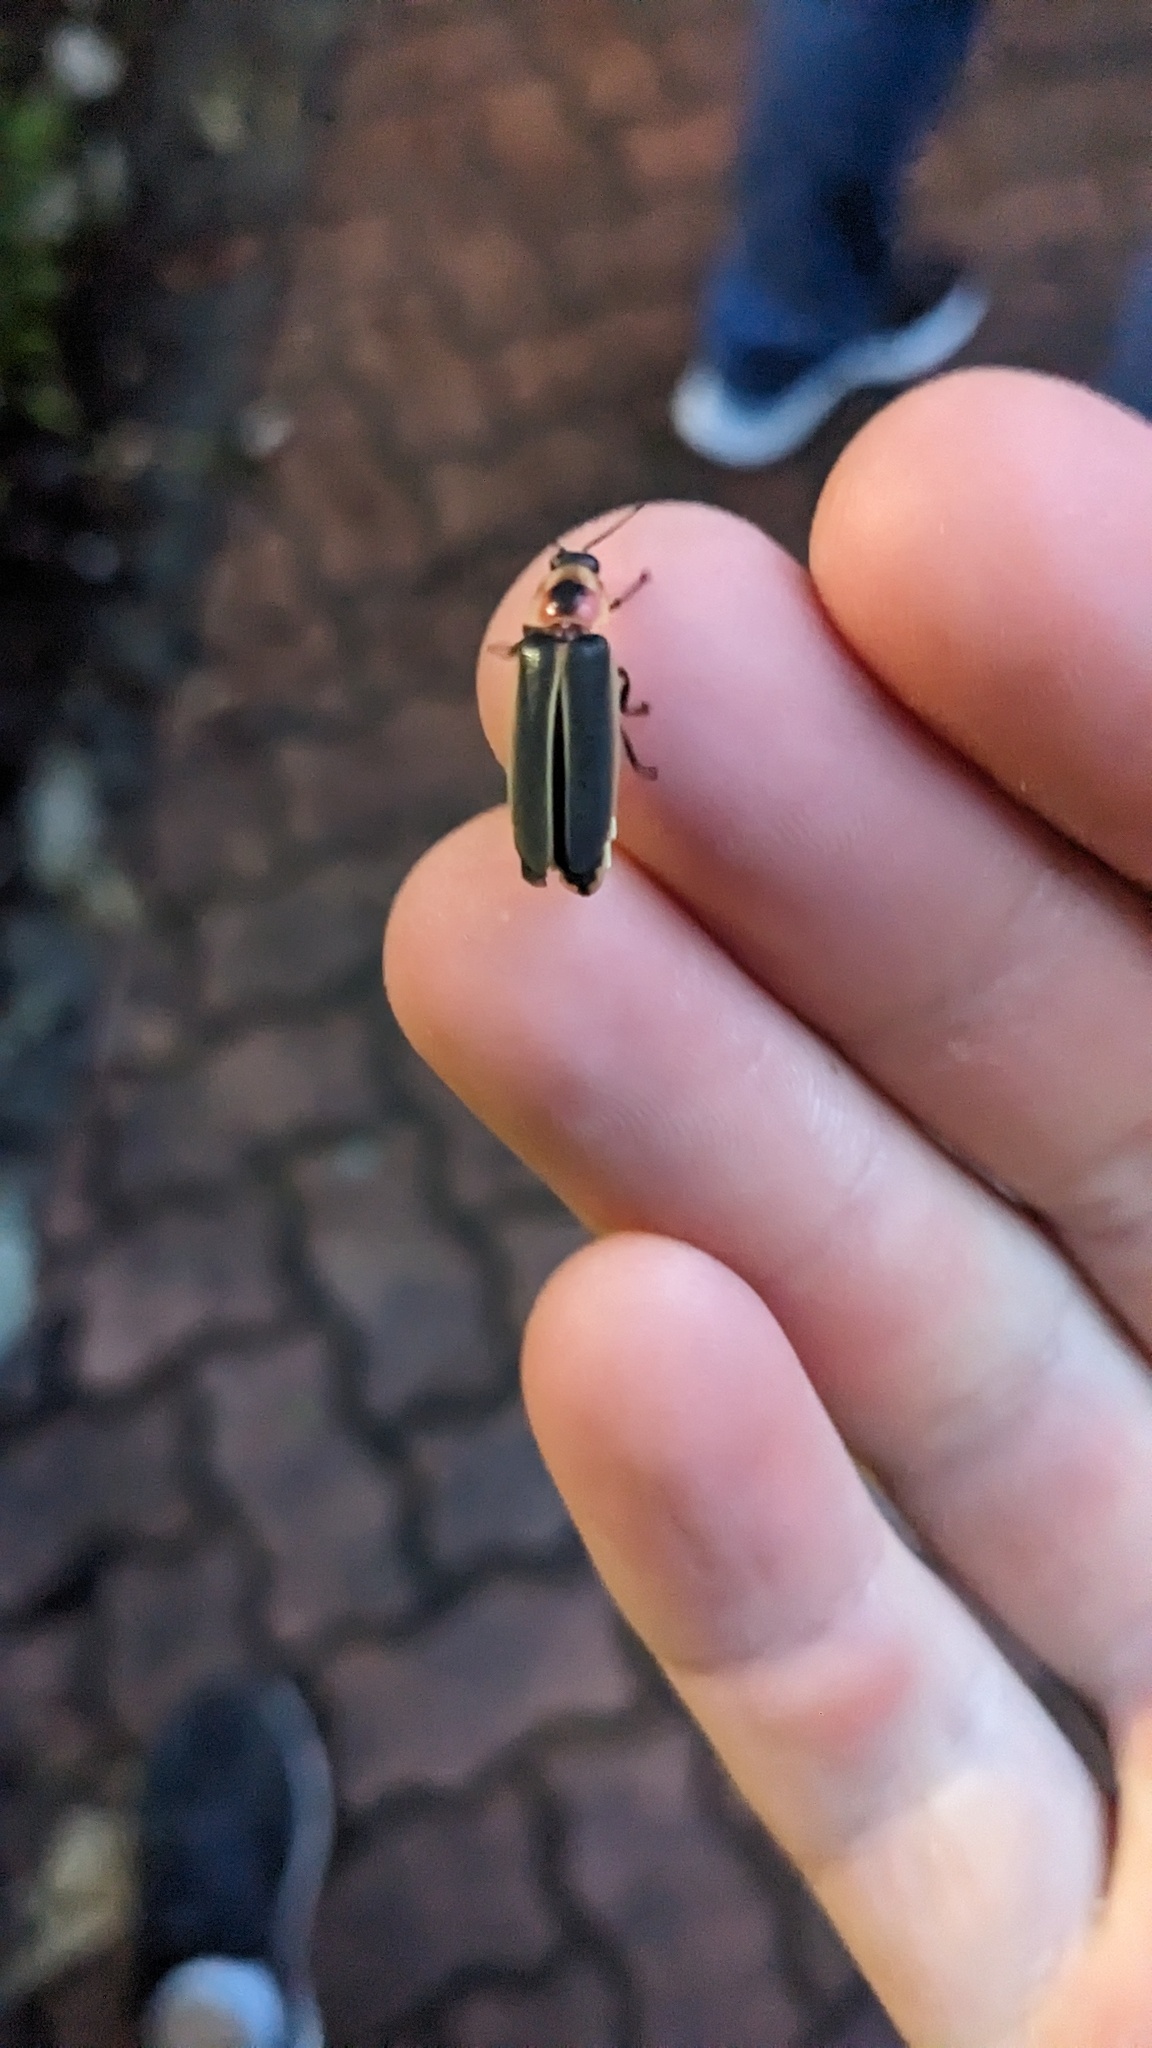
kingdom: Animalia
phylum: Arthropoda
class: Insecta
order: Coleoptera
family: Lampyridae
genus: Photinus
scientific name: Photinus pyralis
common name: Big dipper firefly
